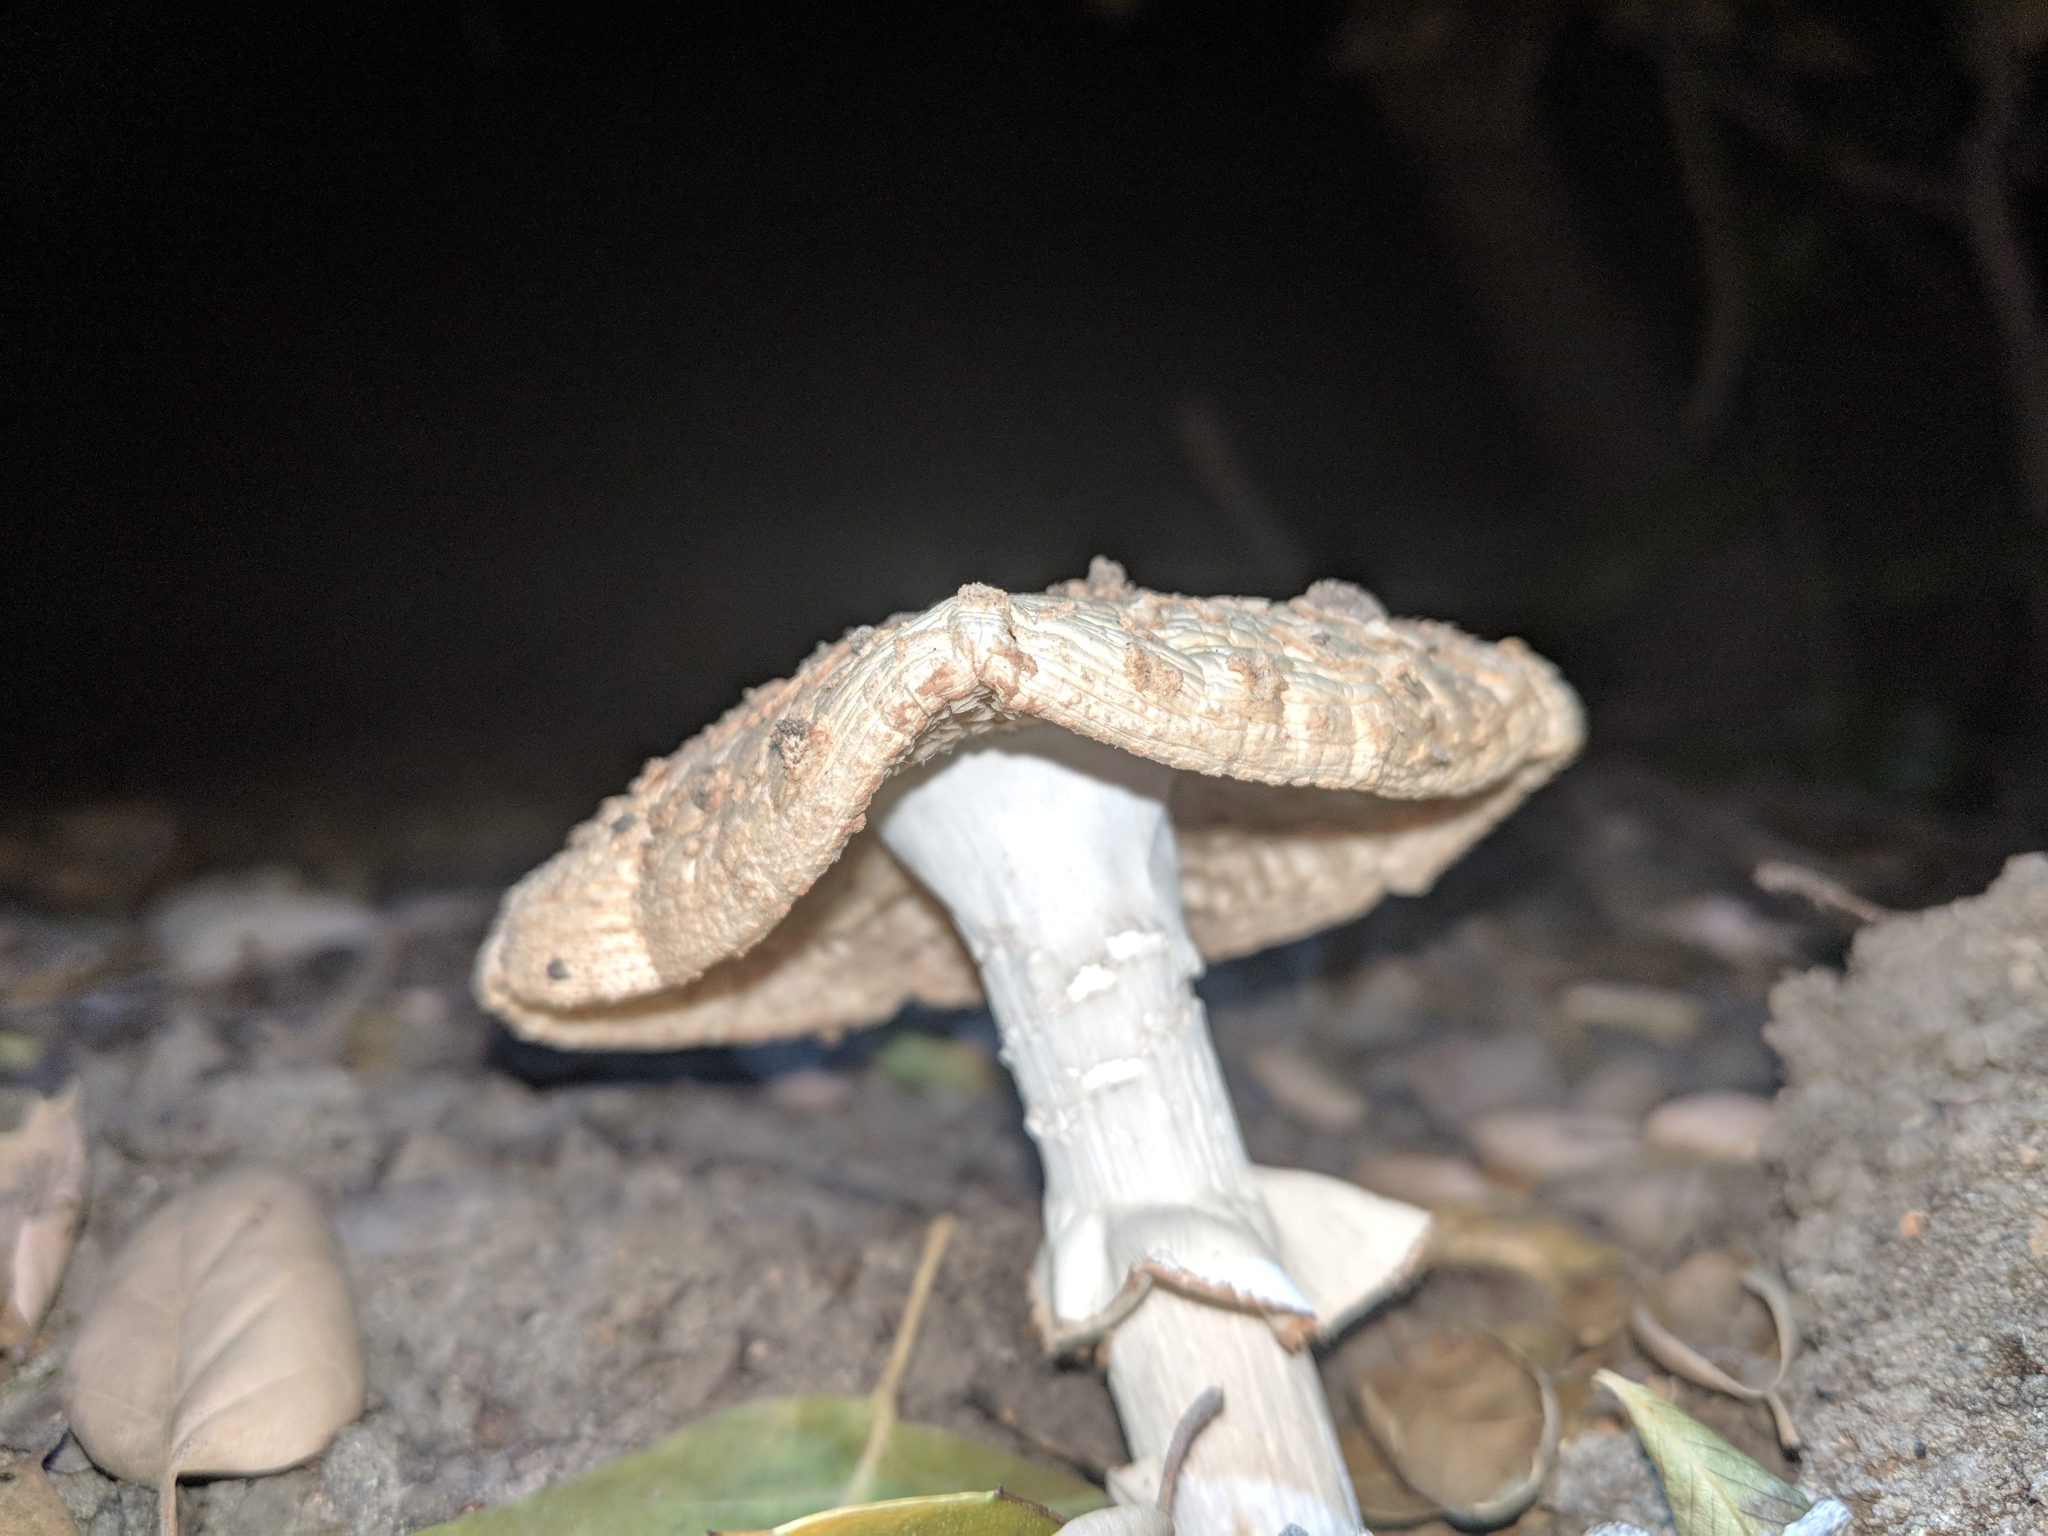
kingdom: Fungi
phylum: Basidiomycota
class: Agaricomycetes
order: Agaricales
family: Amanitaceae
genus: Amanita
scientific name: Amanita novinupta
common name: Blushing bride
